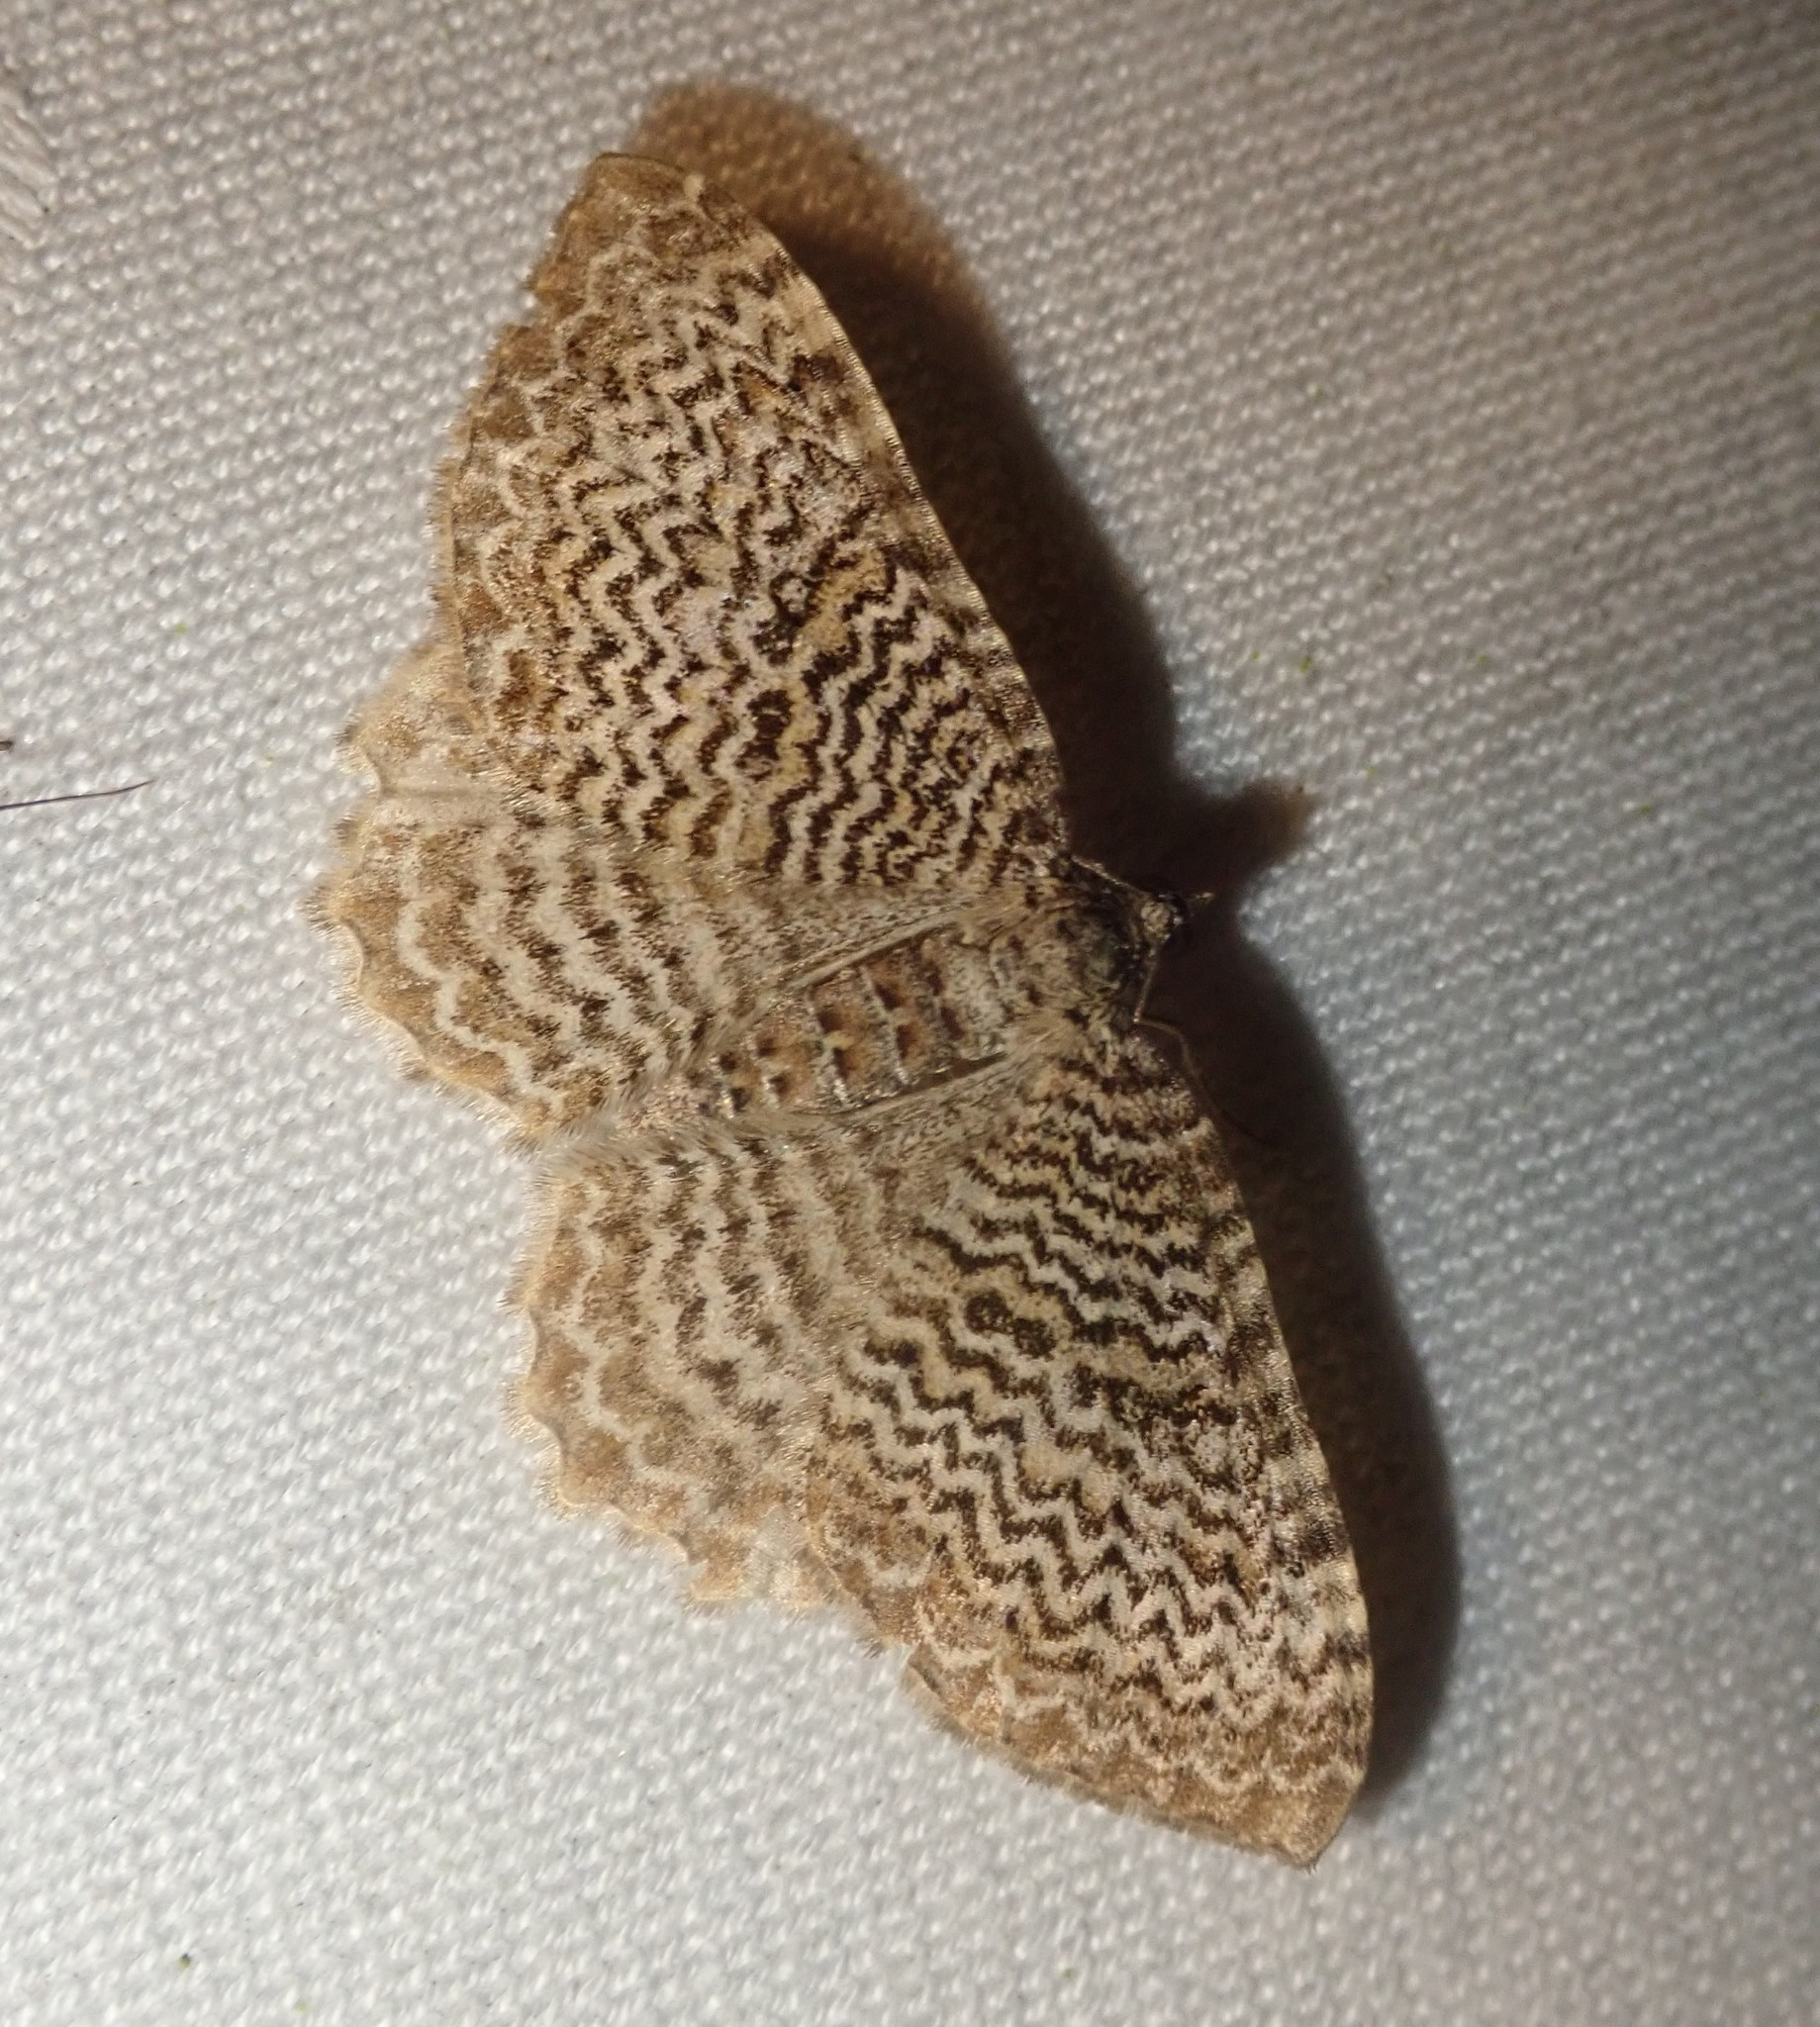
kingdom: Animalia
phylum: Arthropoda
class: Insecta
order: Lepidoptera
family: Geometridae
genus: Rheumaptera
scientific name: Rheumaptera undulata
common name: Scallop shell
